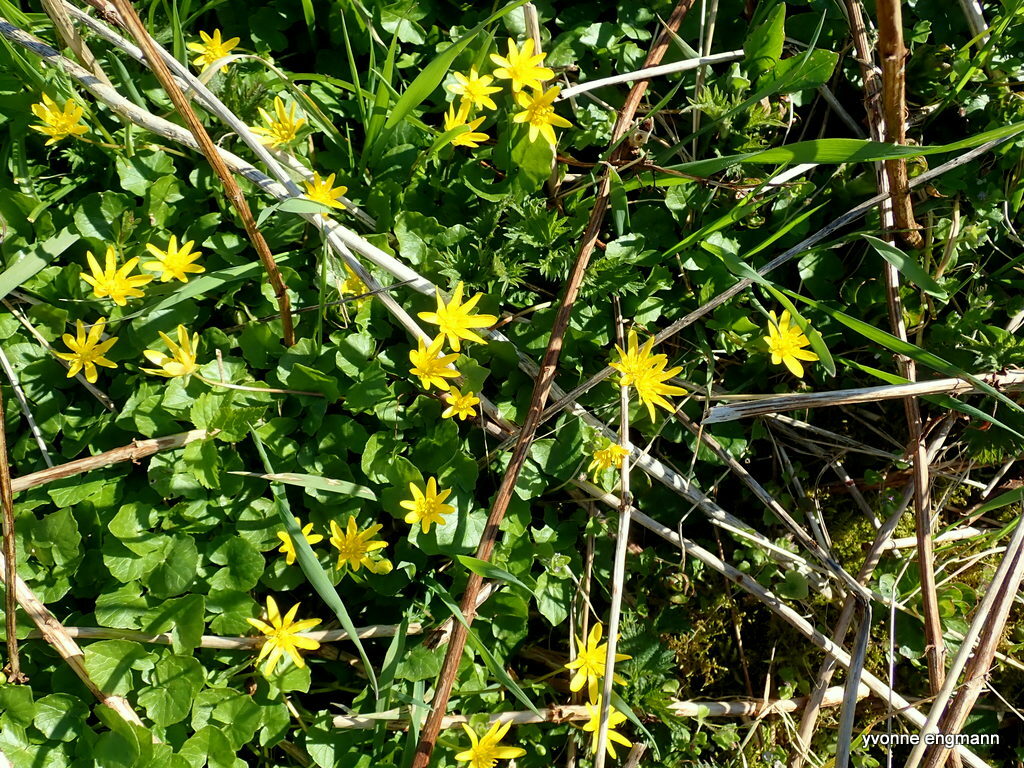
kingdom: Plantae
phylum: Tracheophyta
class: Magnoliopsida
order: Ranunculales
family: Ranunculaceae
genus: Ficaria
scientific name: Ficaria verna
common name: Lesser celandine
